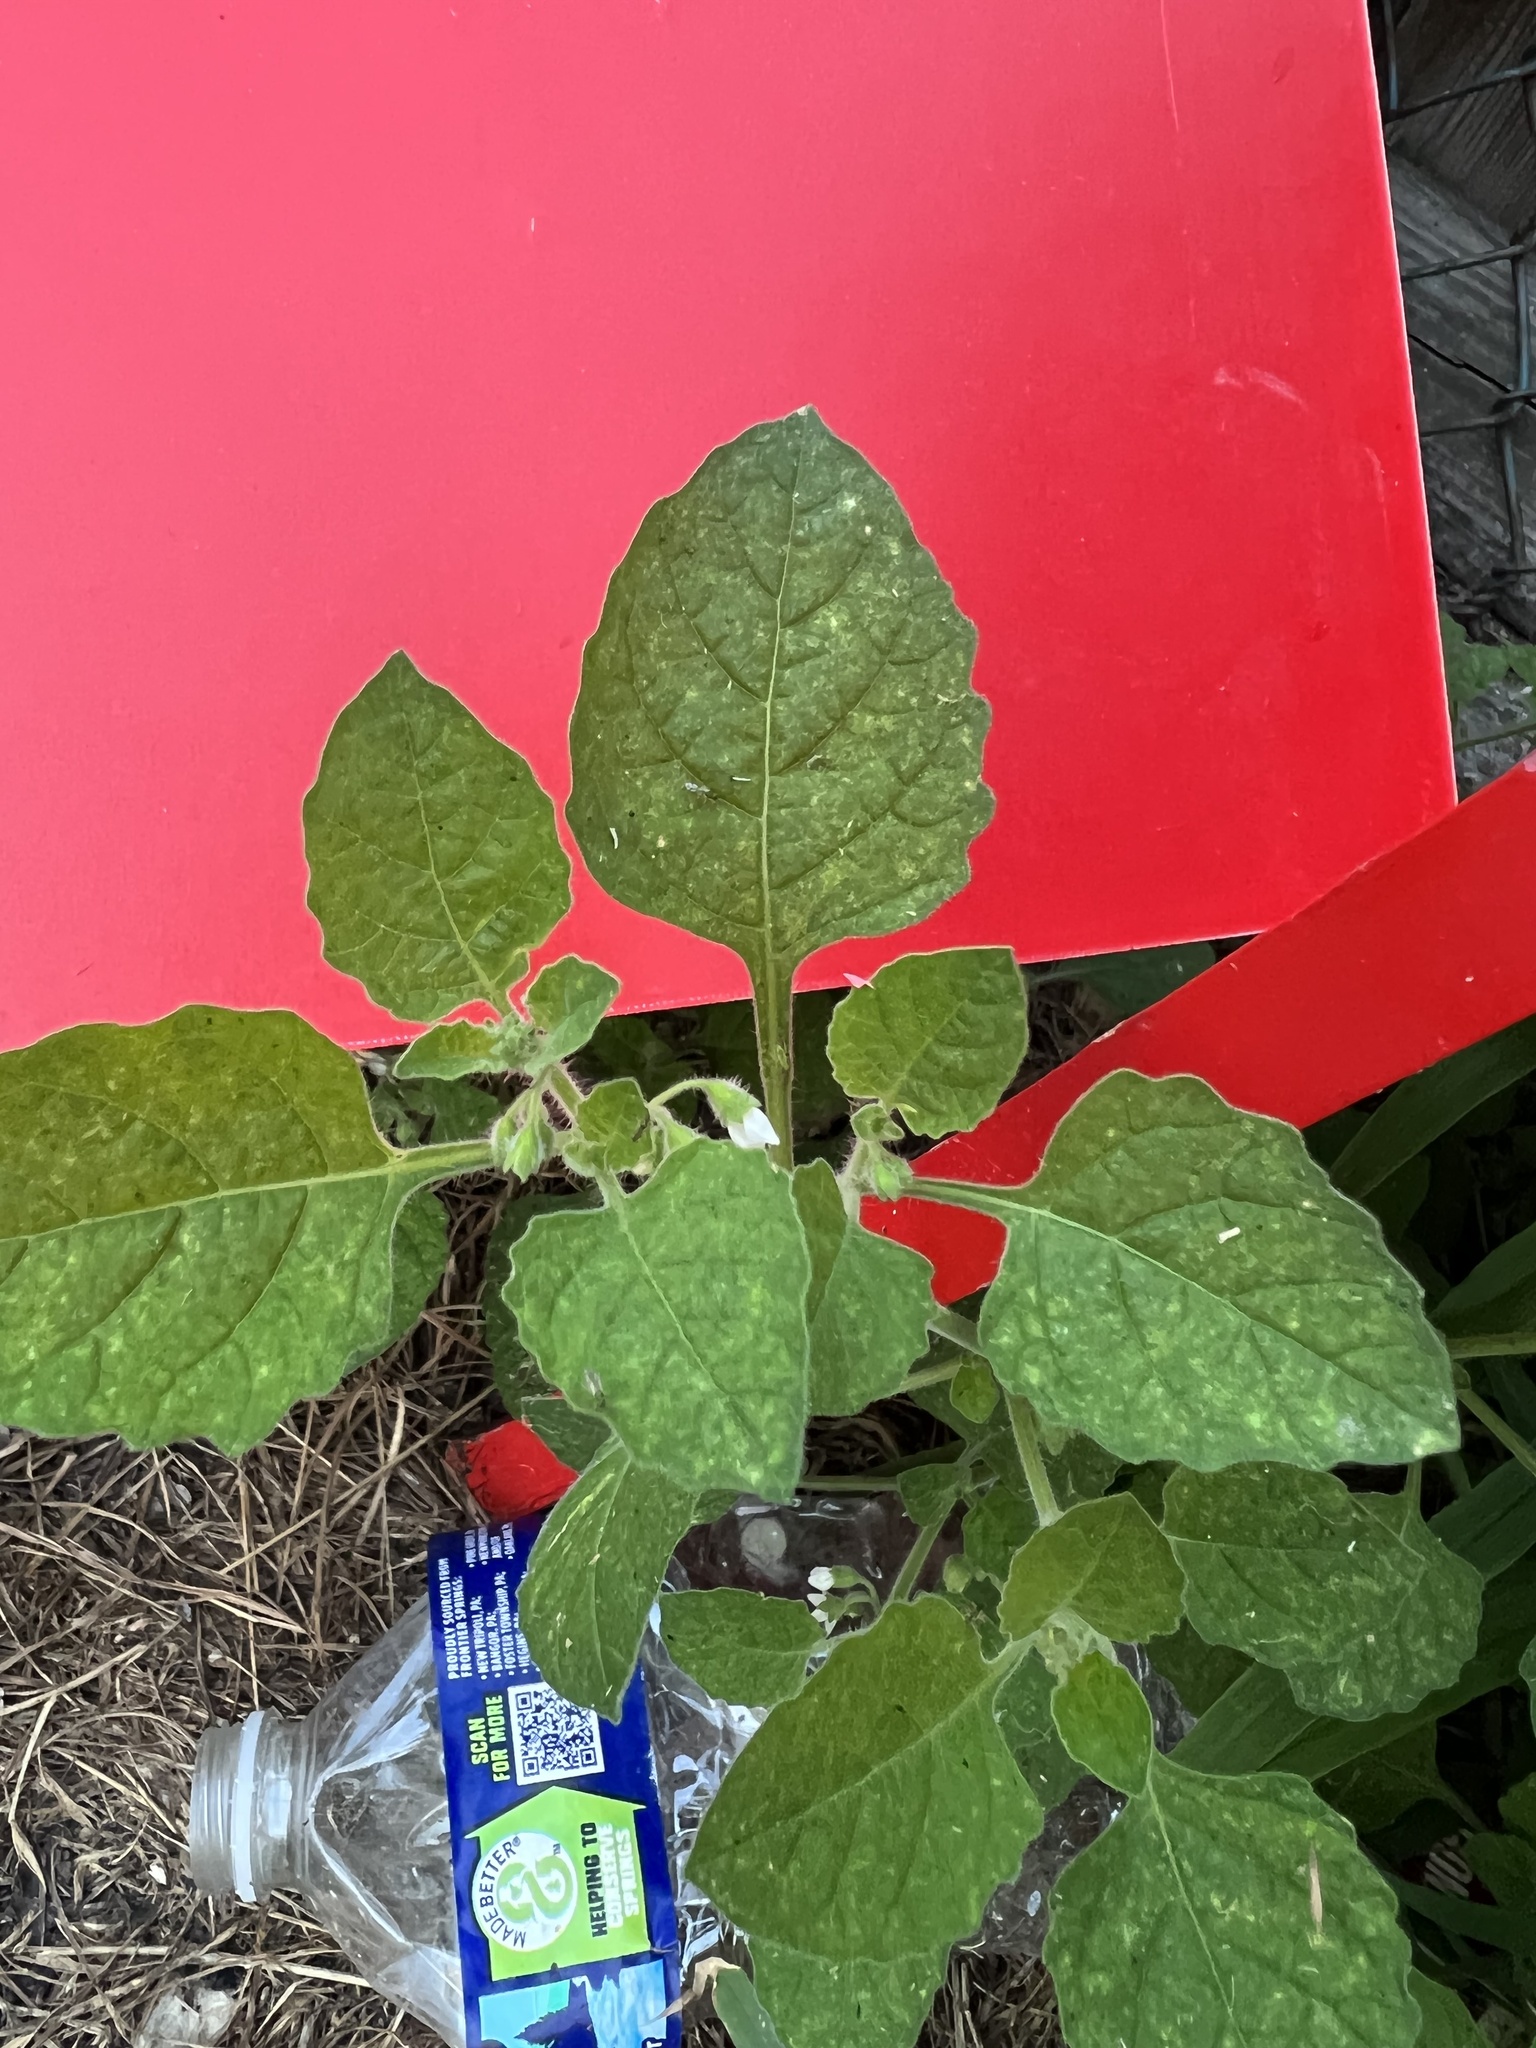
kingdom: Plantae
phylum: Tracheophyta
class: Magnoliopsida
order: Solanales
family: Solanaceae
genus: Solanum
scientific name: Solanum sarrachoides
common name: Leafy-fruited nightshade
